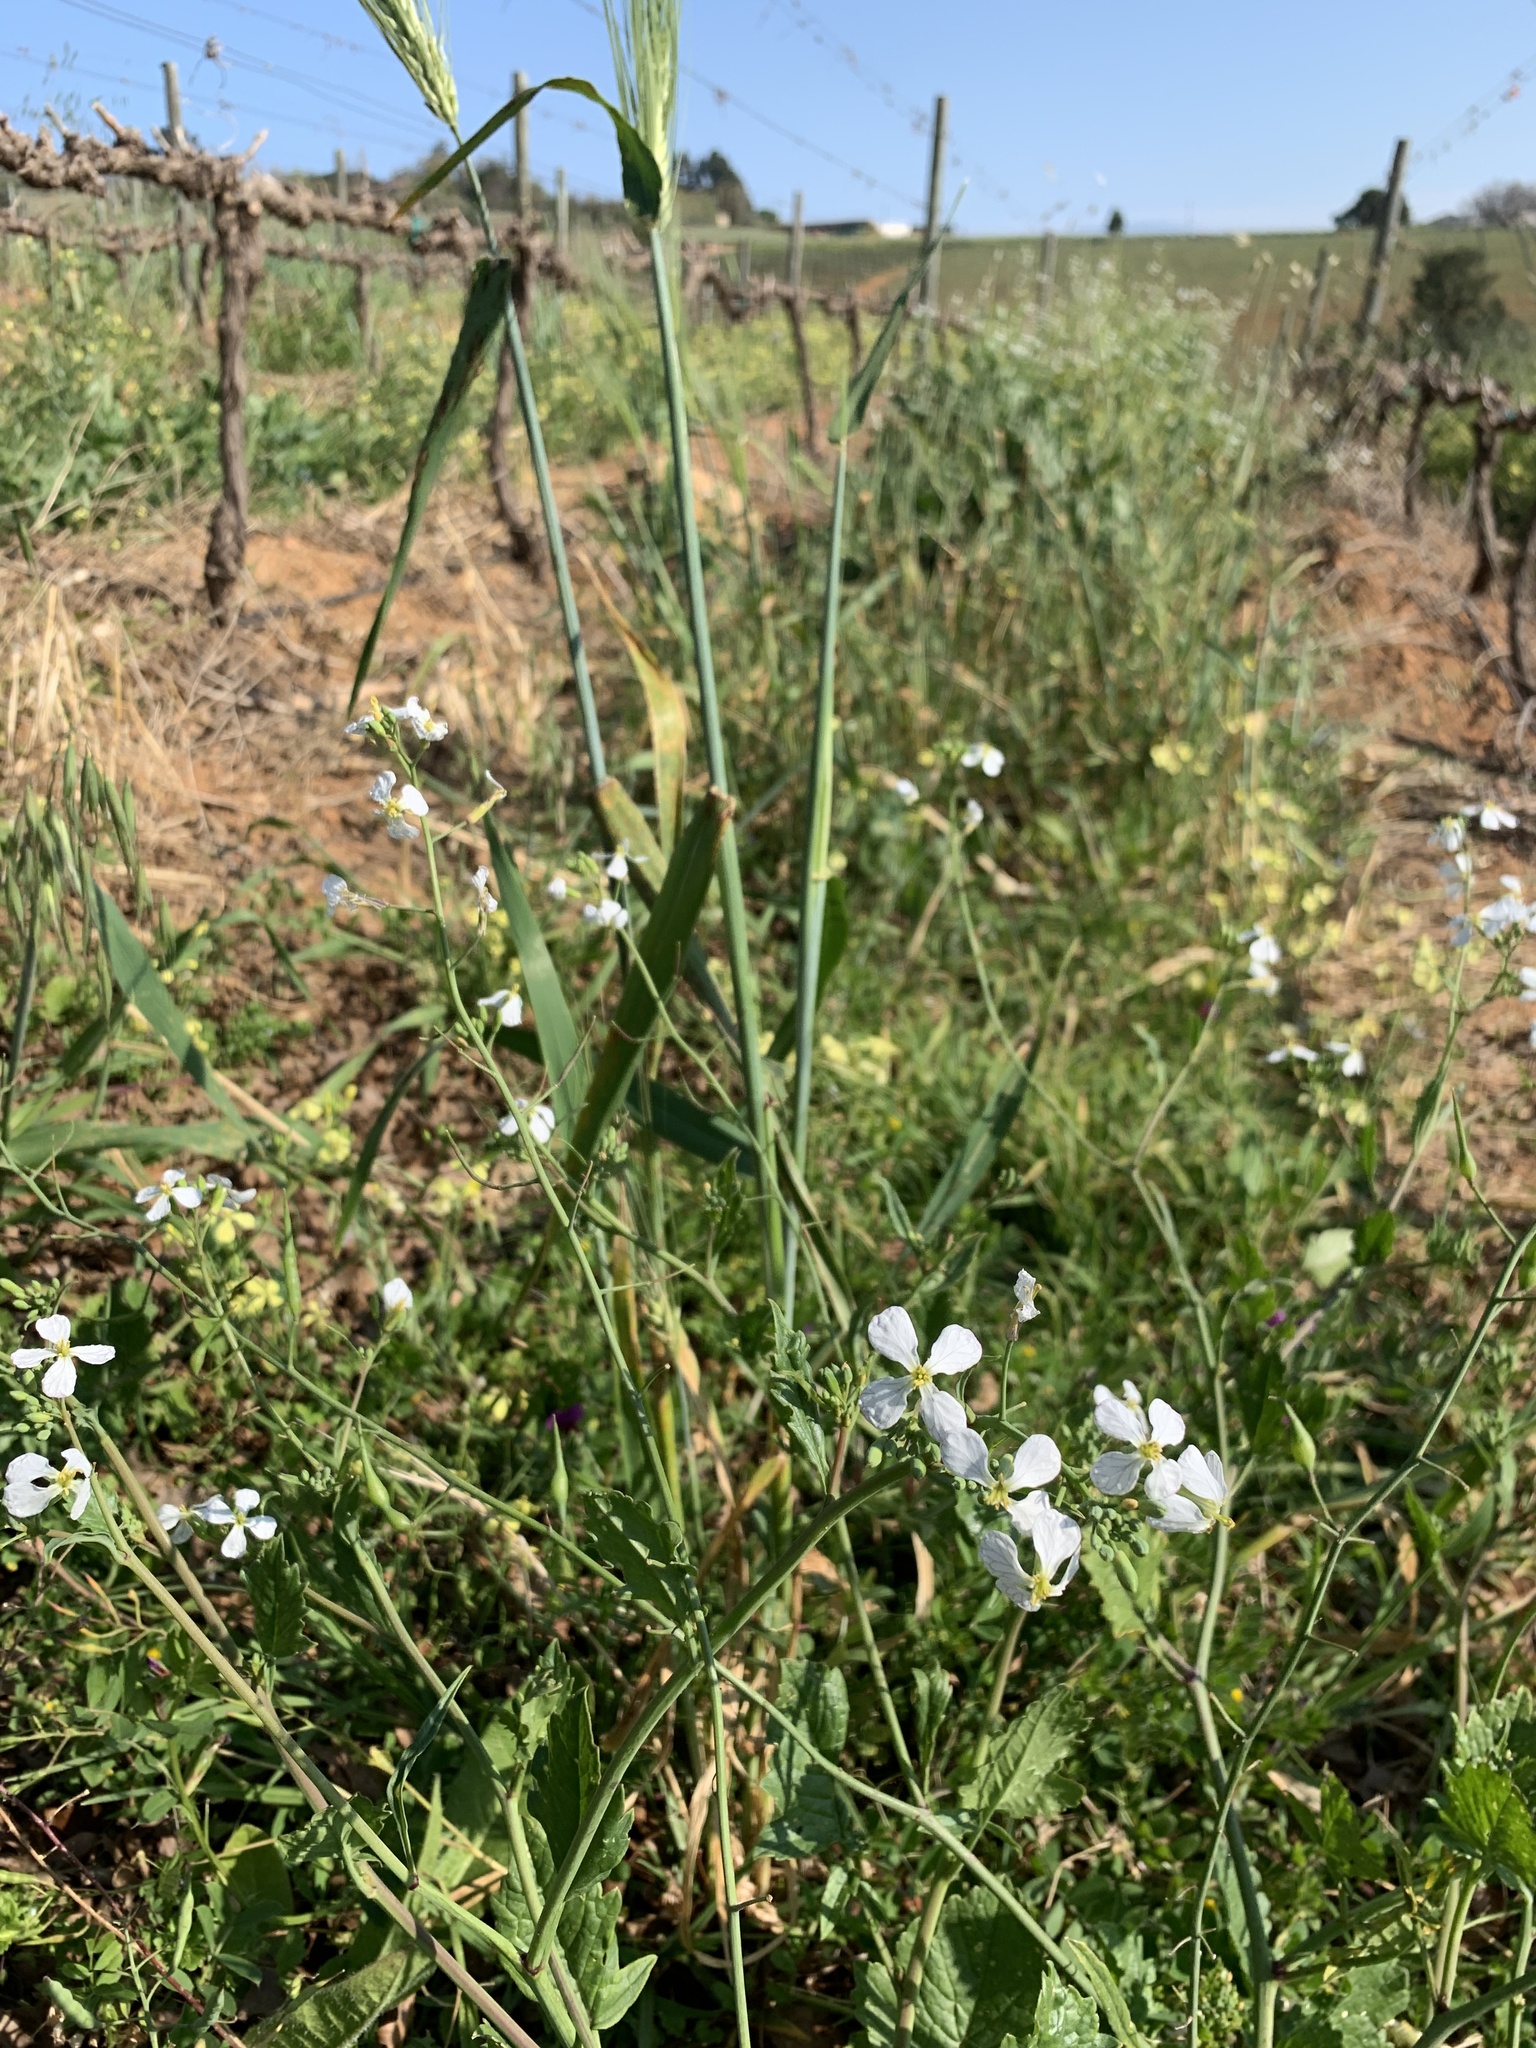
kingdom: Plantae
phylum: Tracheophyta
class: Magnoliopsida
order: Brassicales
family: Brassicaceae
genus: Raphanus
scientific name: Raphanus sativus
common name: Cultivated radish
